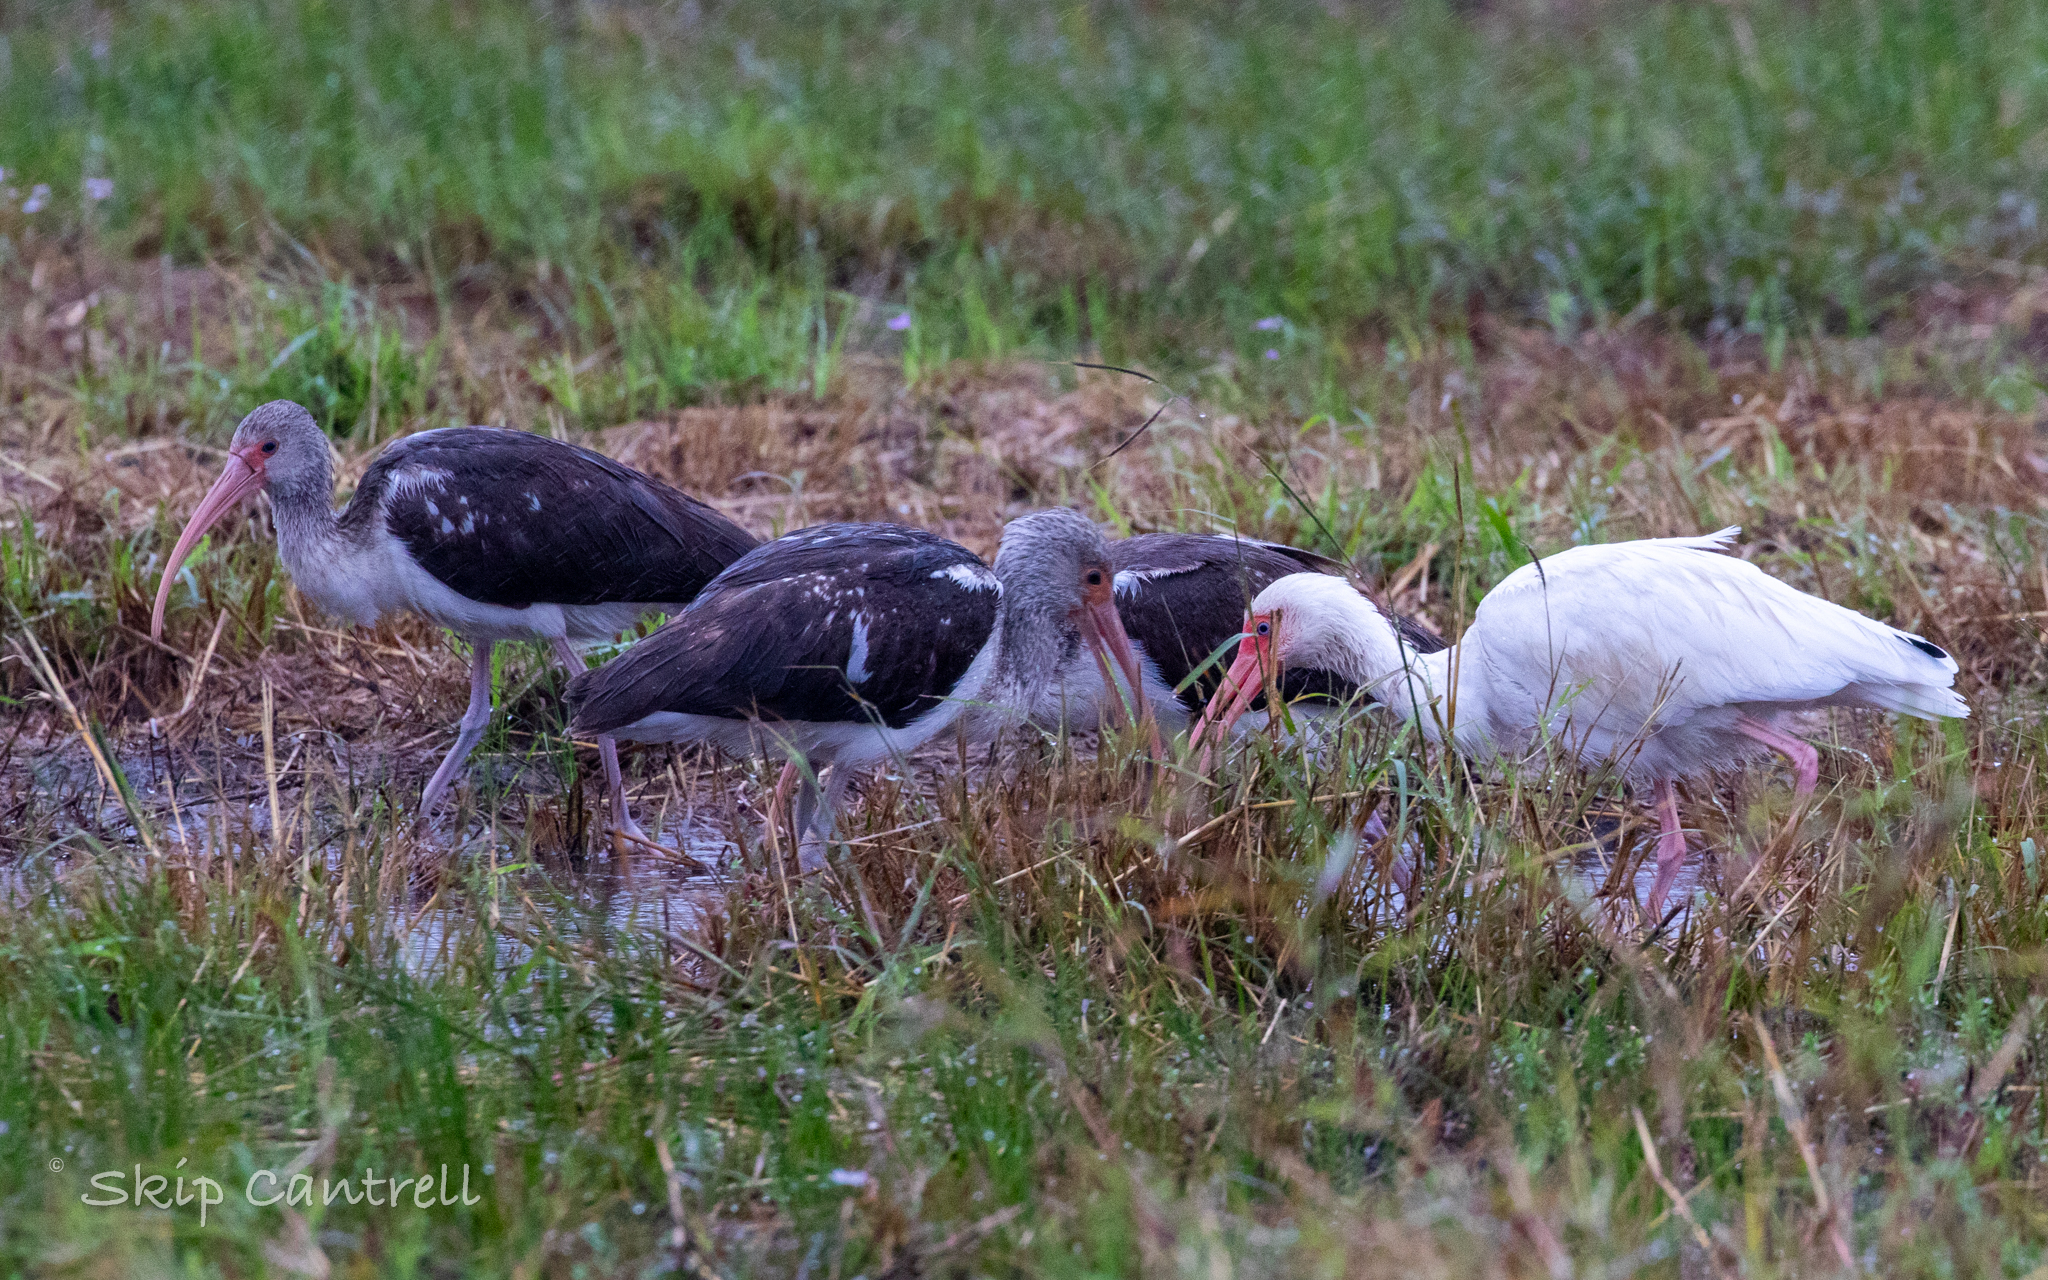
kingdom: Animalia
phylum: Chordata
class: Aves
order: Pelecaniformes
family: Threskiornithidae
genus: Eudocimus
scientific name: Eudocimus albus
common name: White ibis
